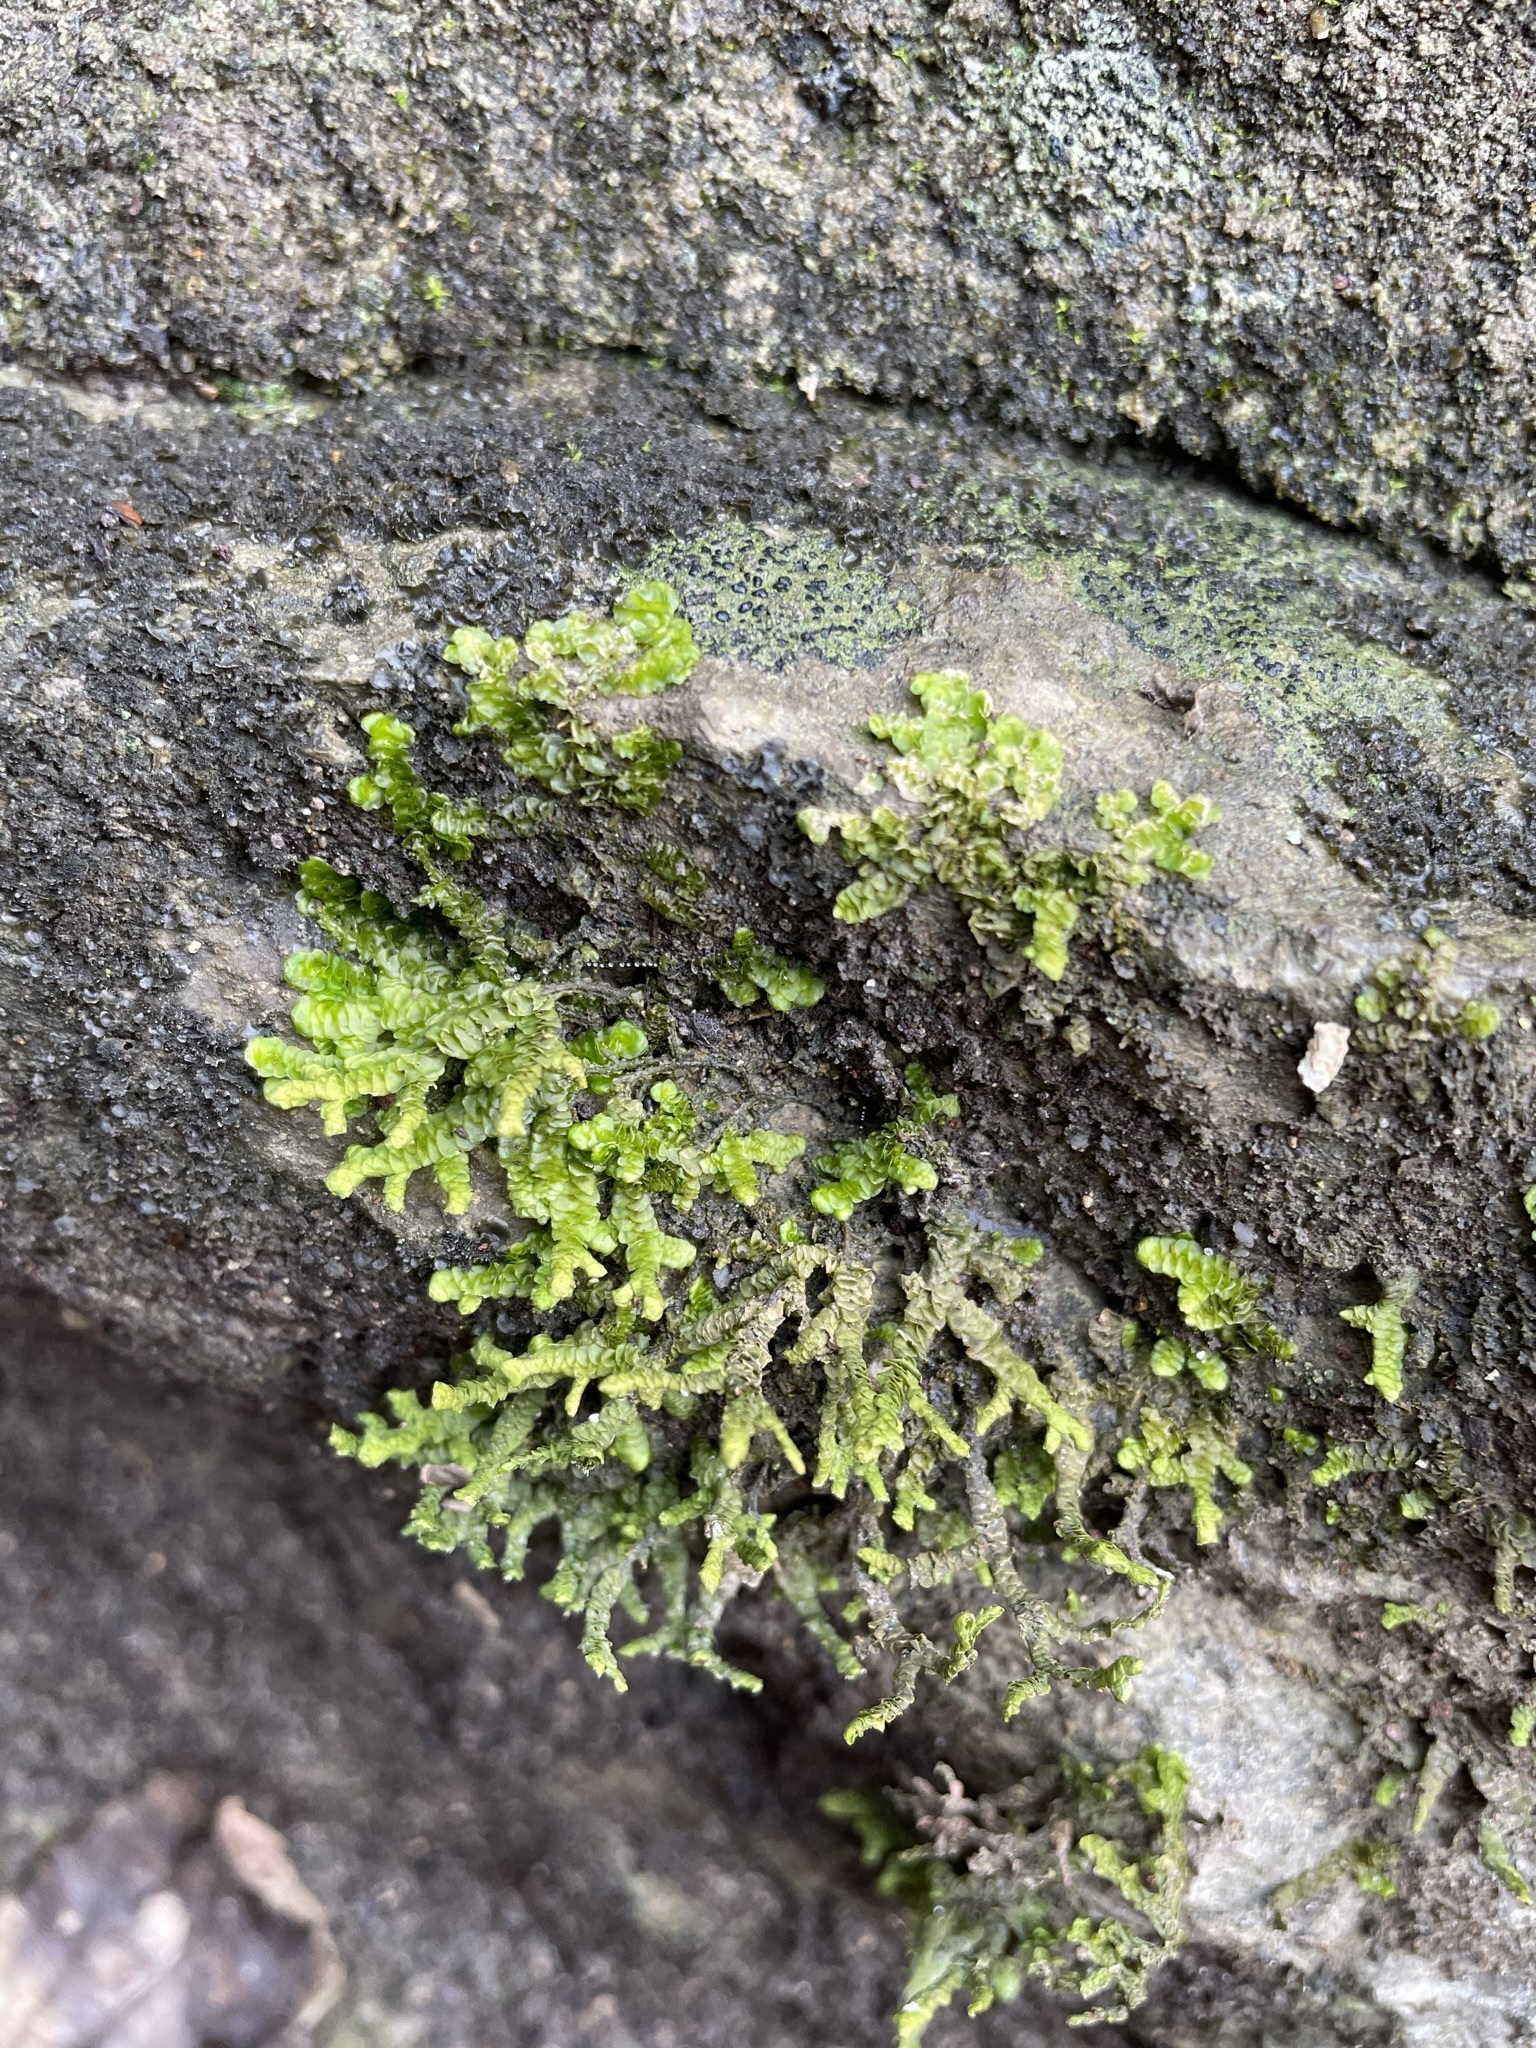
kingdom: Plantae
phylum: Marchantiophyta
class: Jungermanniopsida
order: Porellales
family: Porellaceae
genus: Porella
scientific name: Porella platyphylla
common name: Wall scalewort
